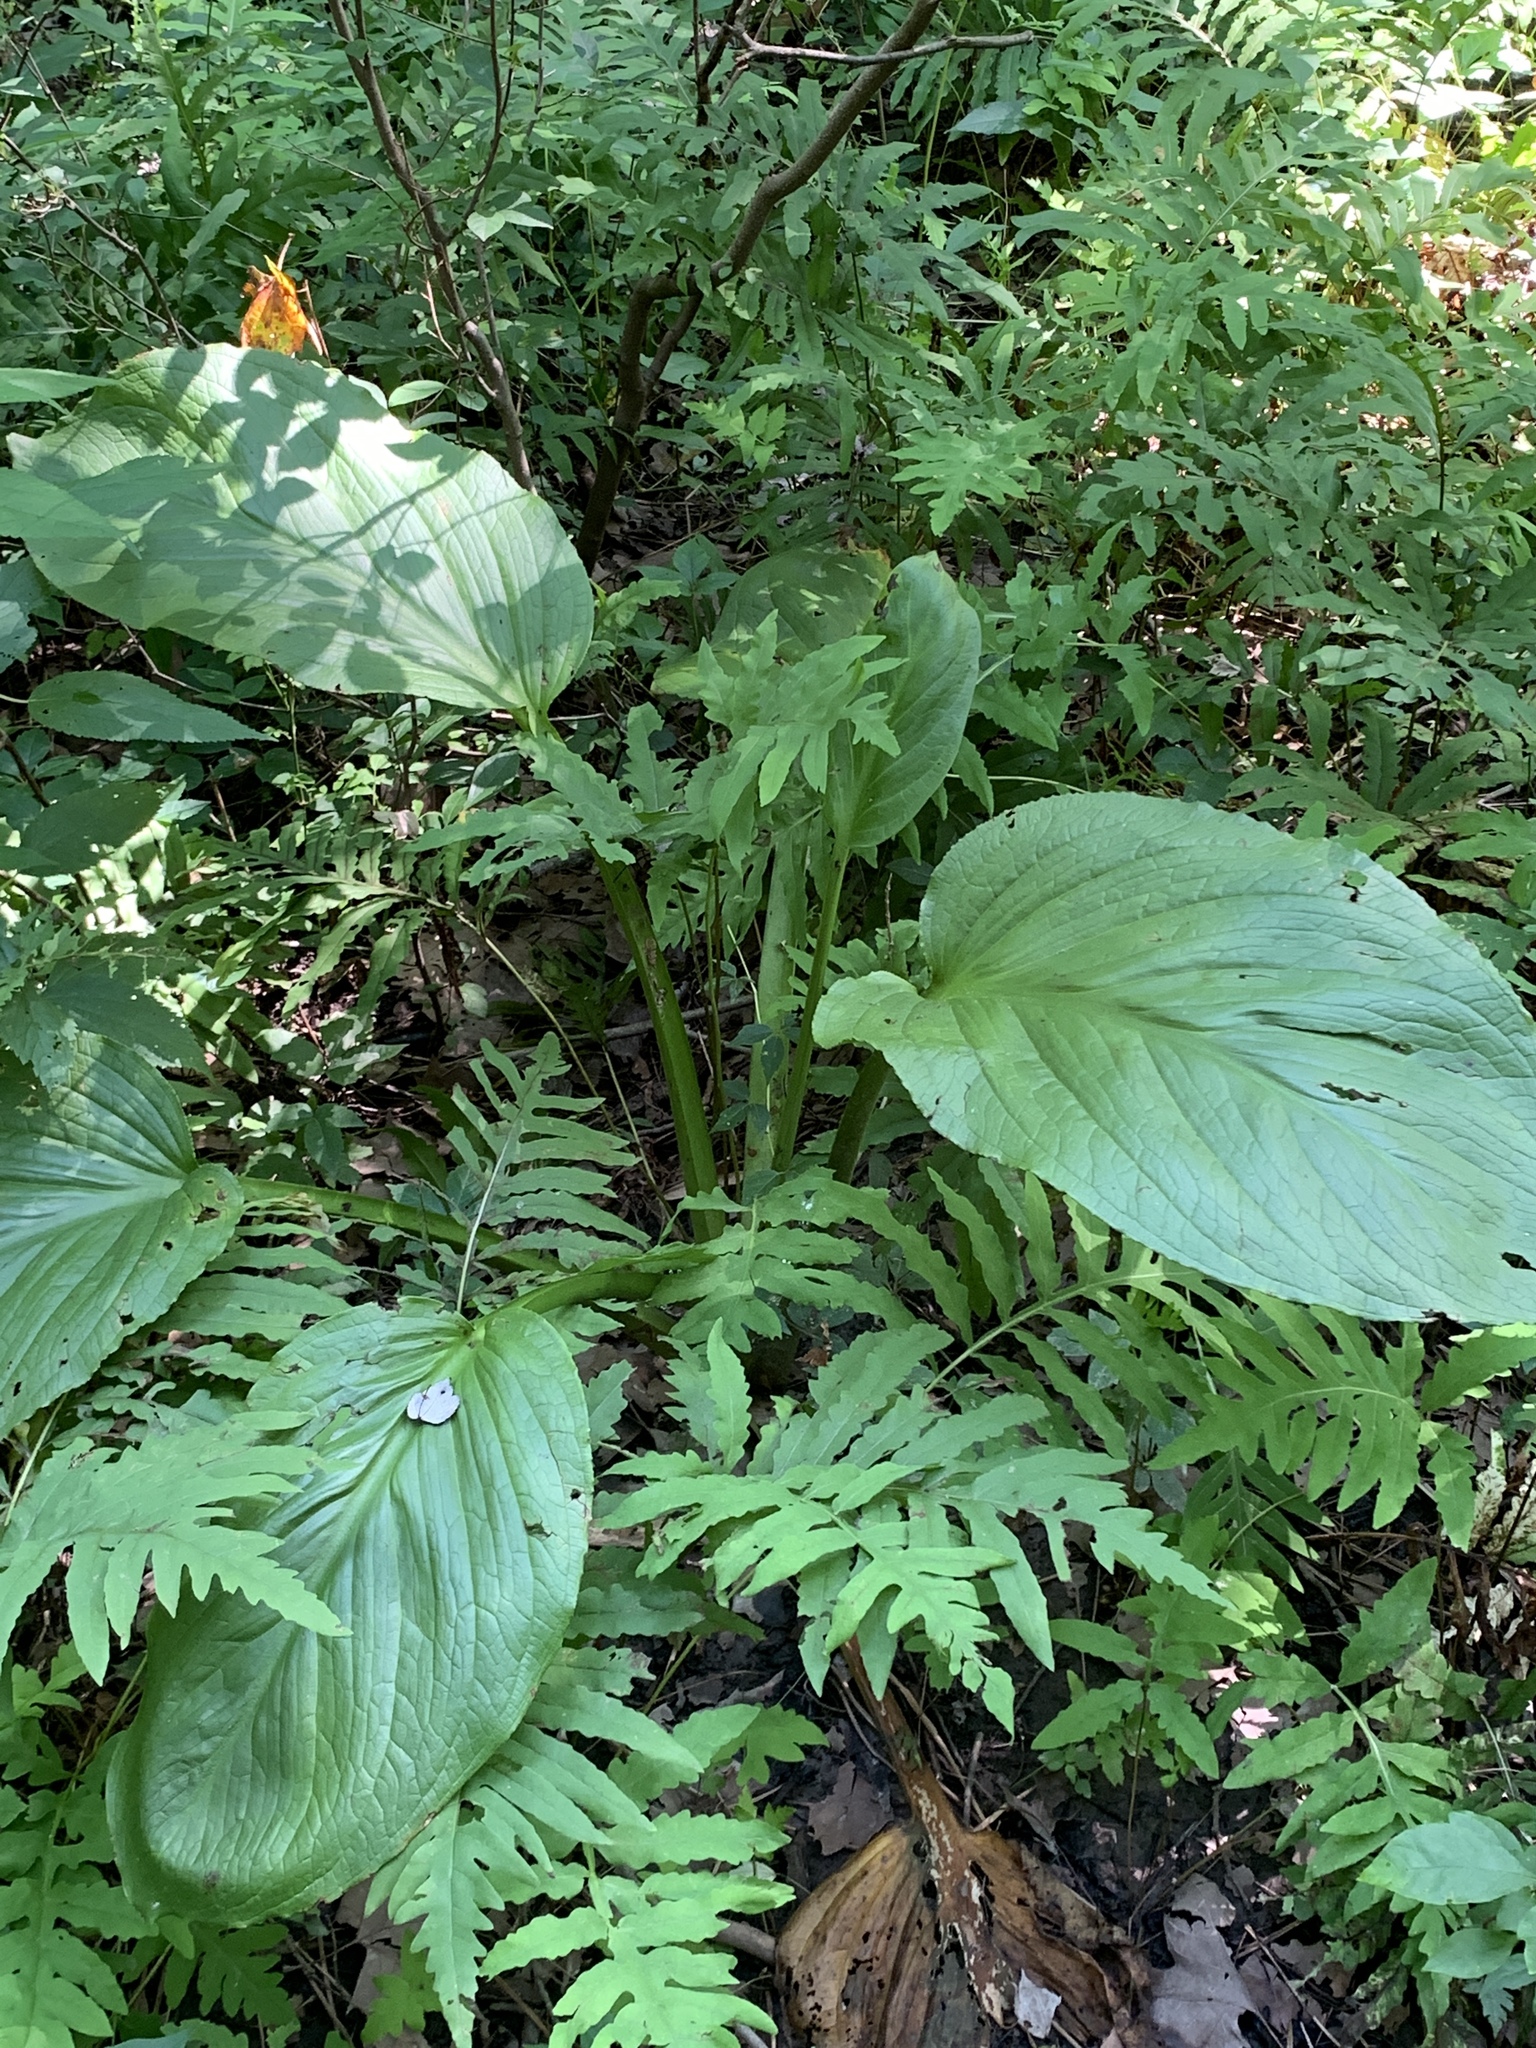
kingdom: Plantae
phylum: Tracheophyta
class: Liliopsida
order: Alismatales
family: Araceae
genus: Symplocarpus
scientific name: Symplocarpus foetidus
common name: Eastern skunk cabbage
